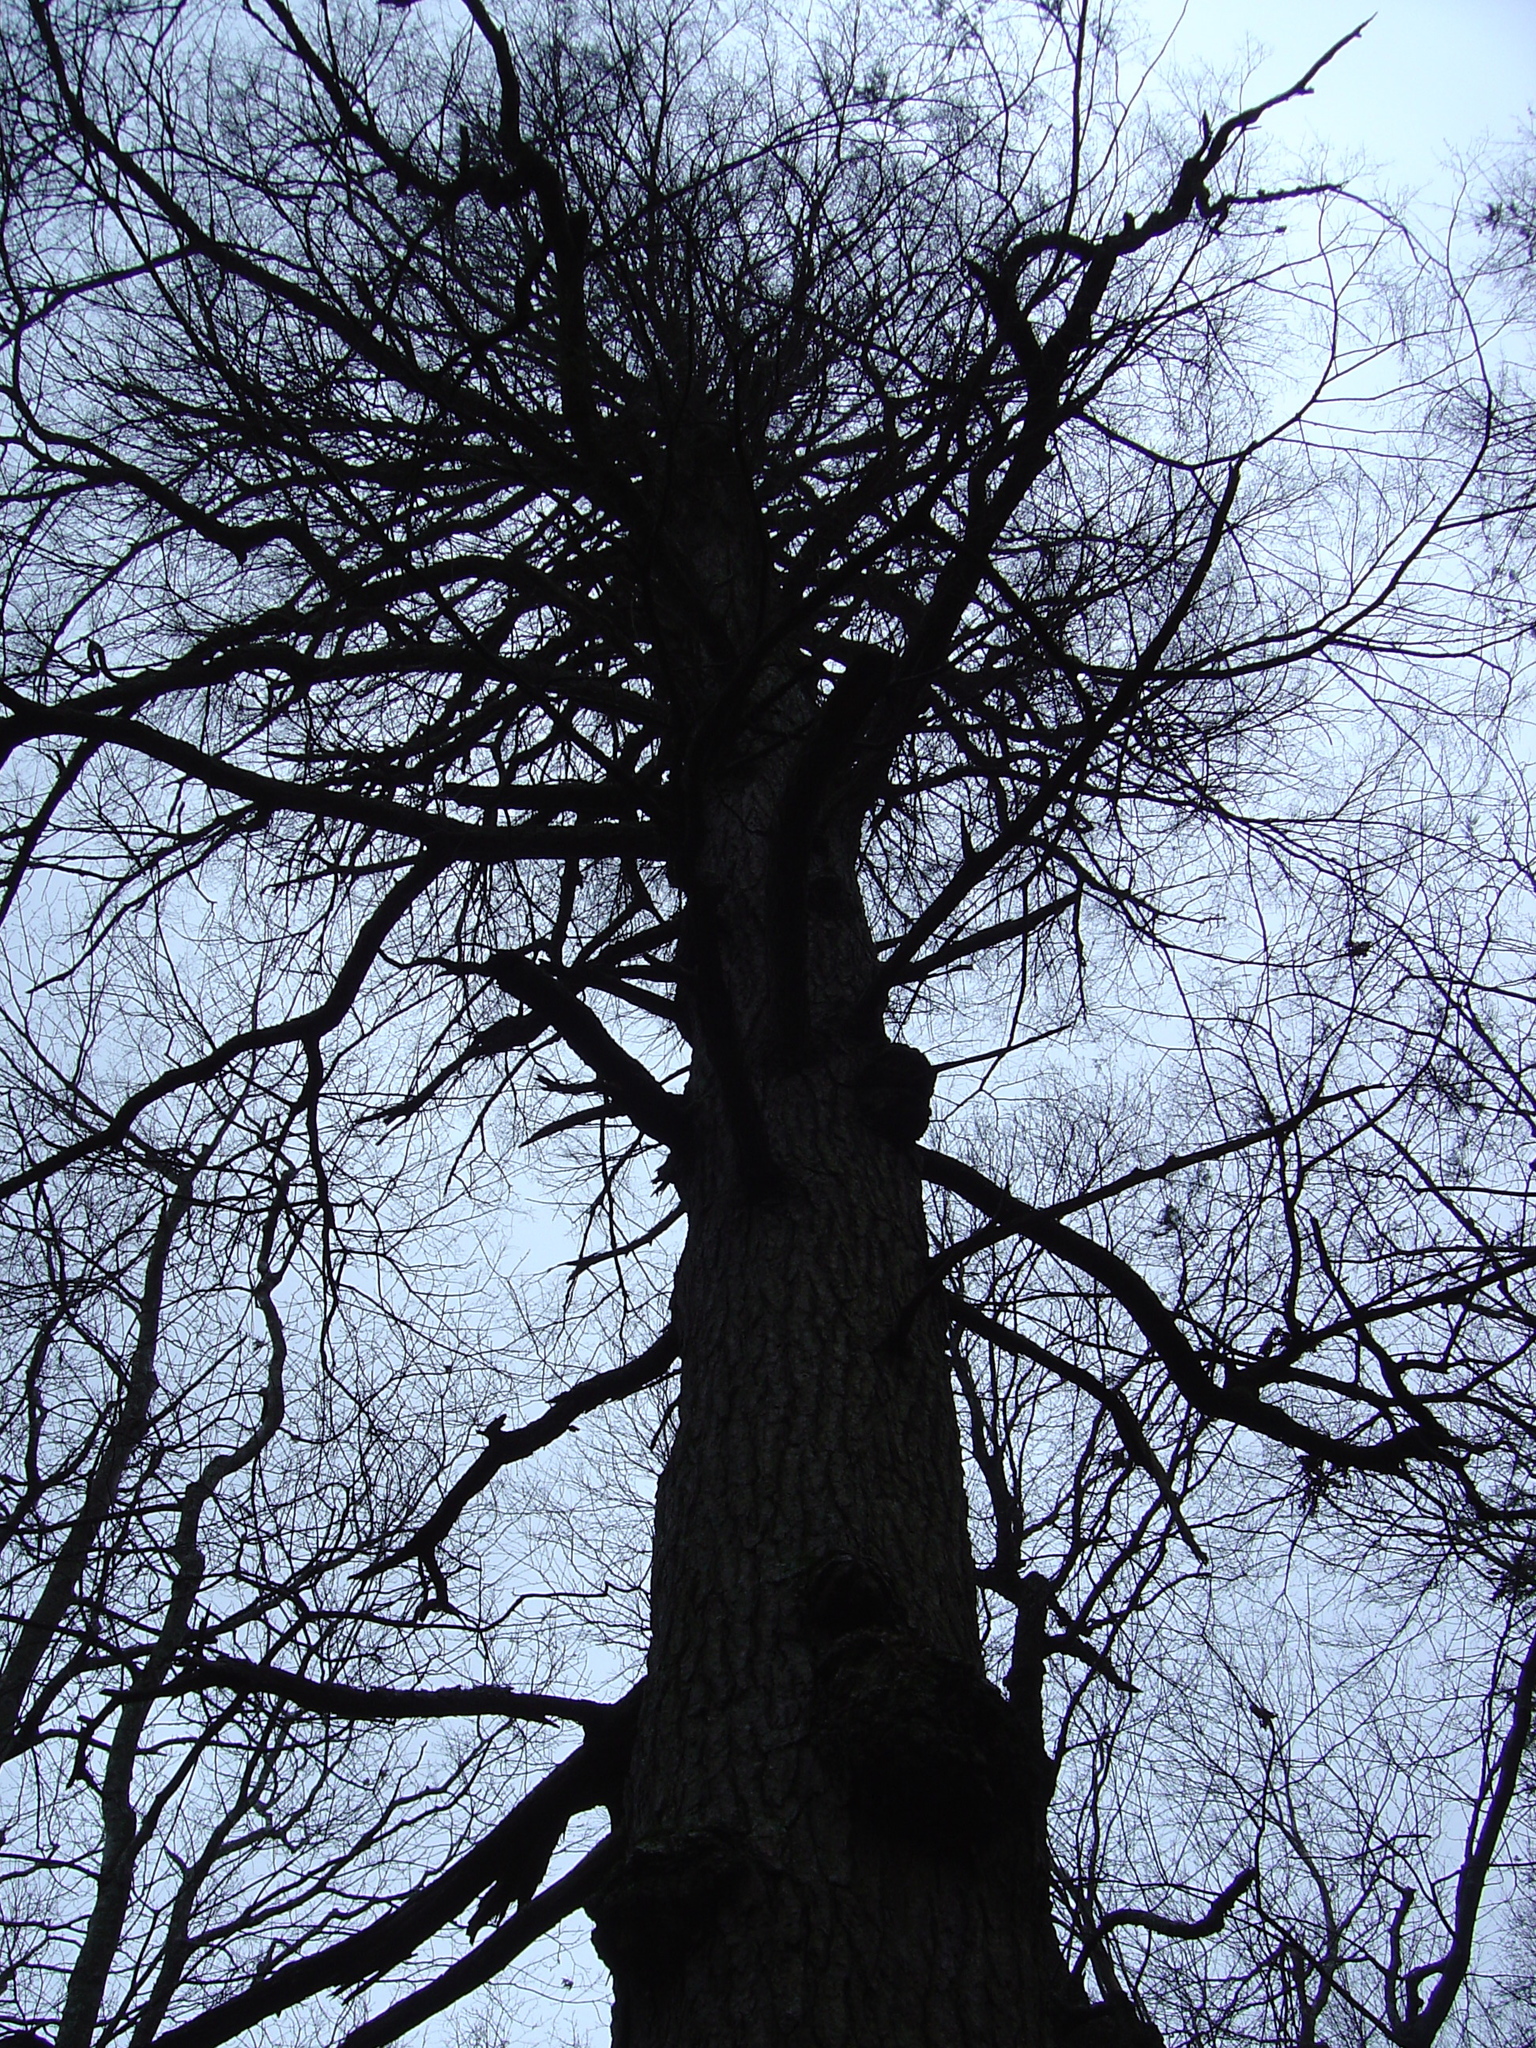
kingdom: Plantae
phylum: Tracheophyta
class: Pinopsida
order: Pinales
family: Pinaceae
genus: Tsuga
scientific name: Tsuga canadensis
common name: Eastern hemlock
